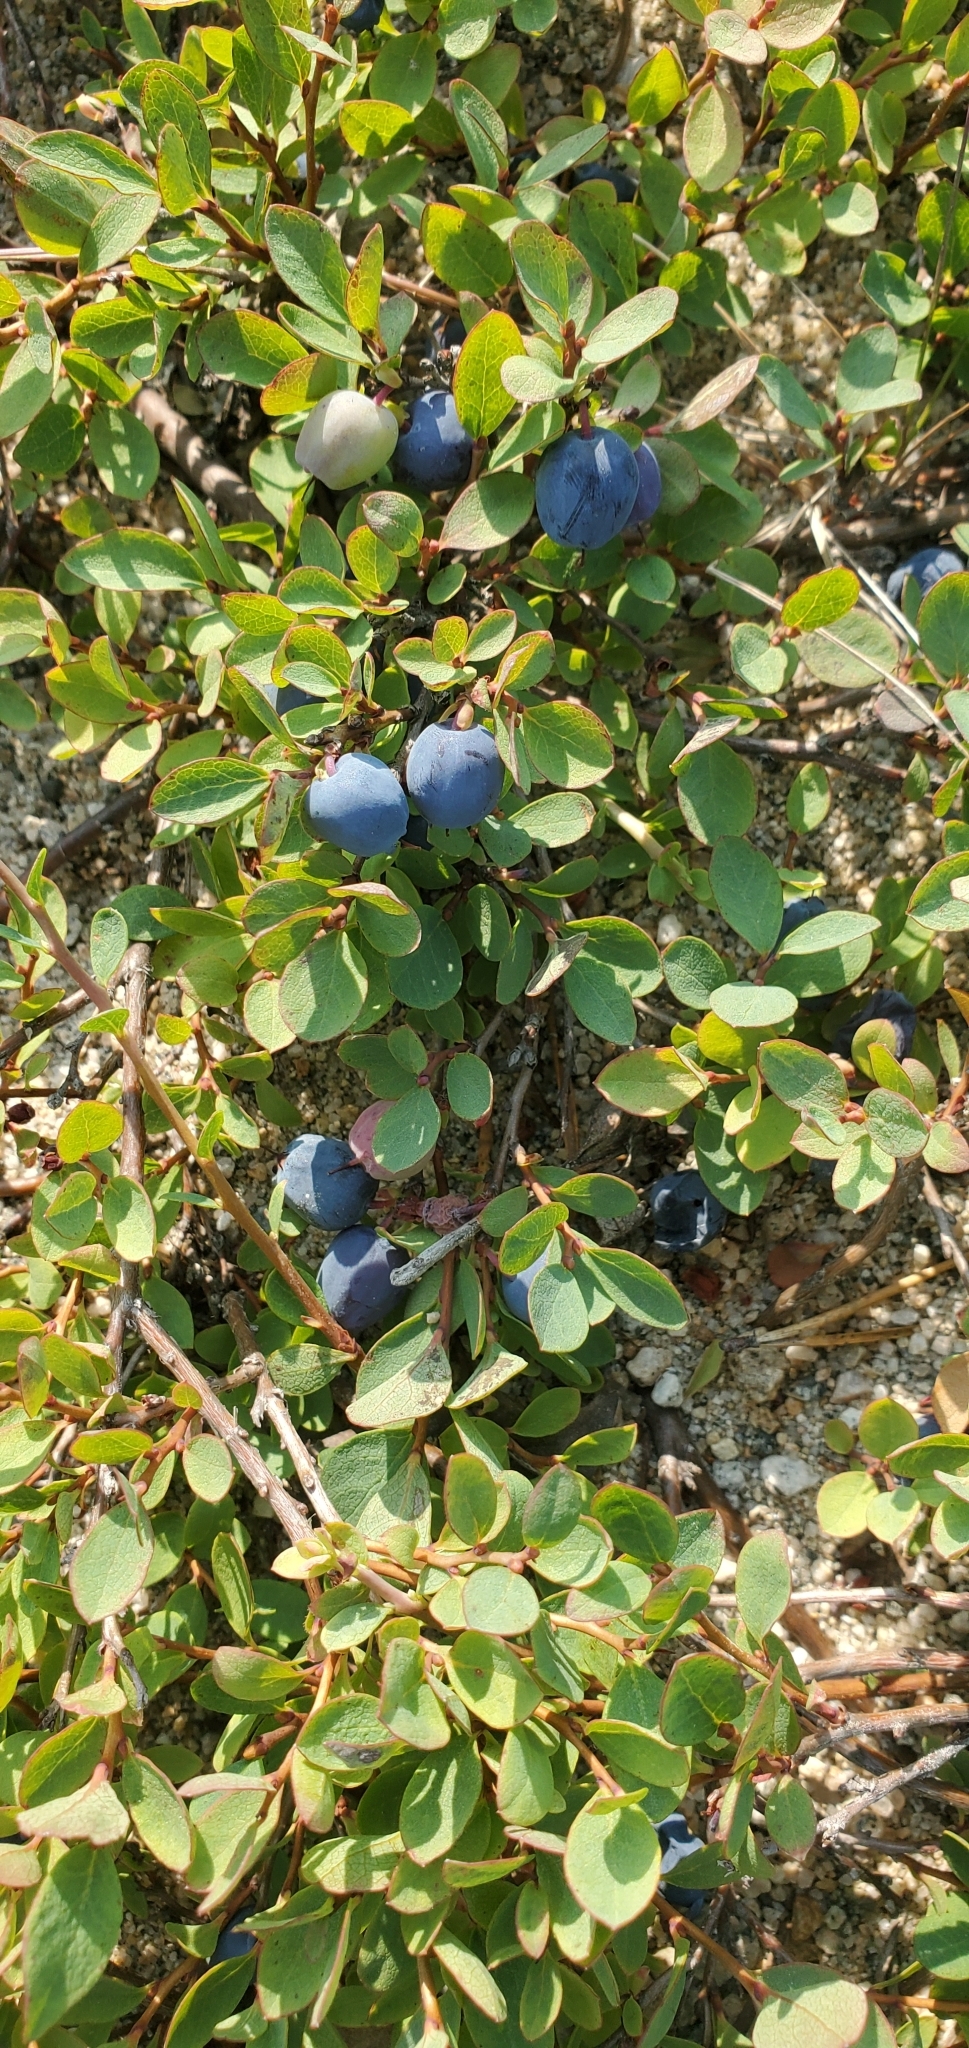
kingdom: Plantae
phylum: Tracheophyta
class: Magnoliopsida
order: Ericales
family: Ericaceae
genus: Vaccinium
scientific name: Vaccinium uliginosum
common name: Bog bilberry
